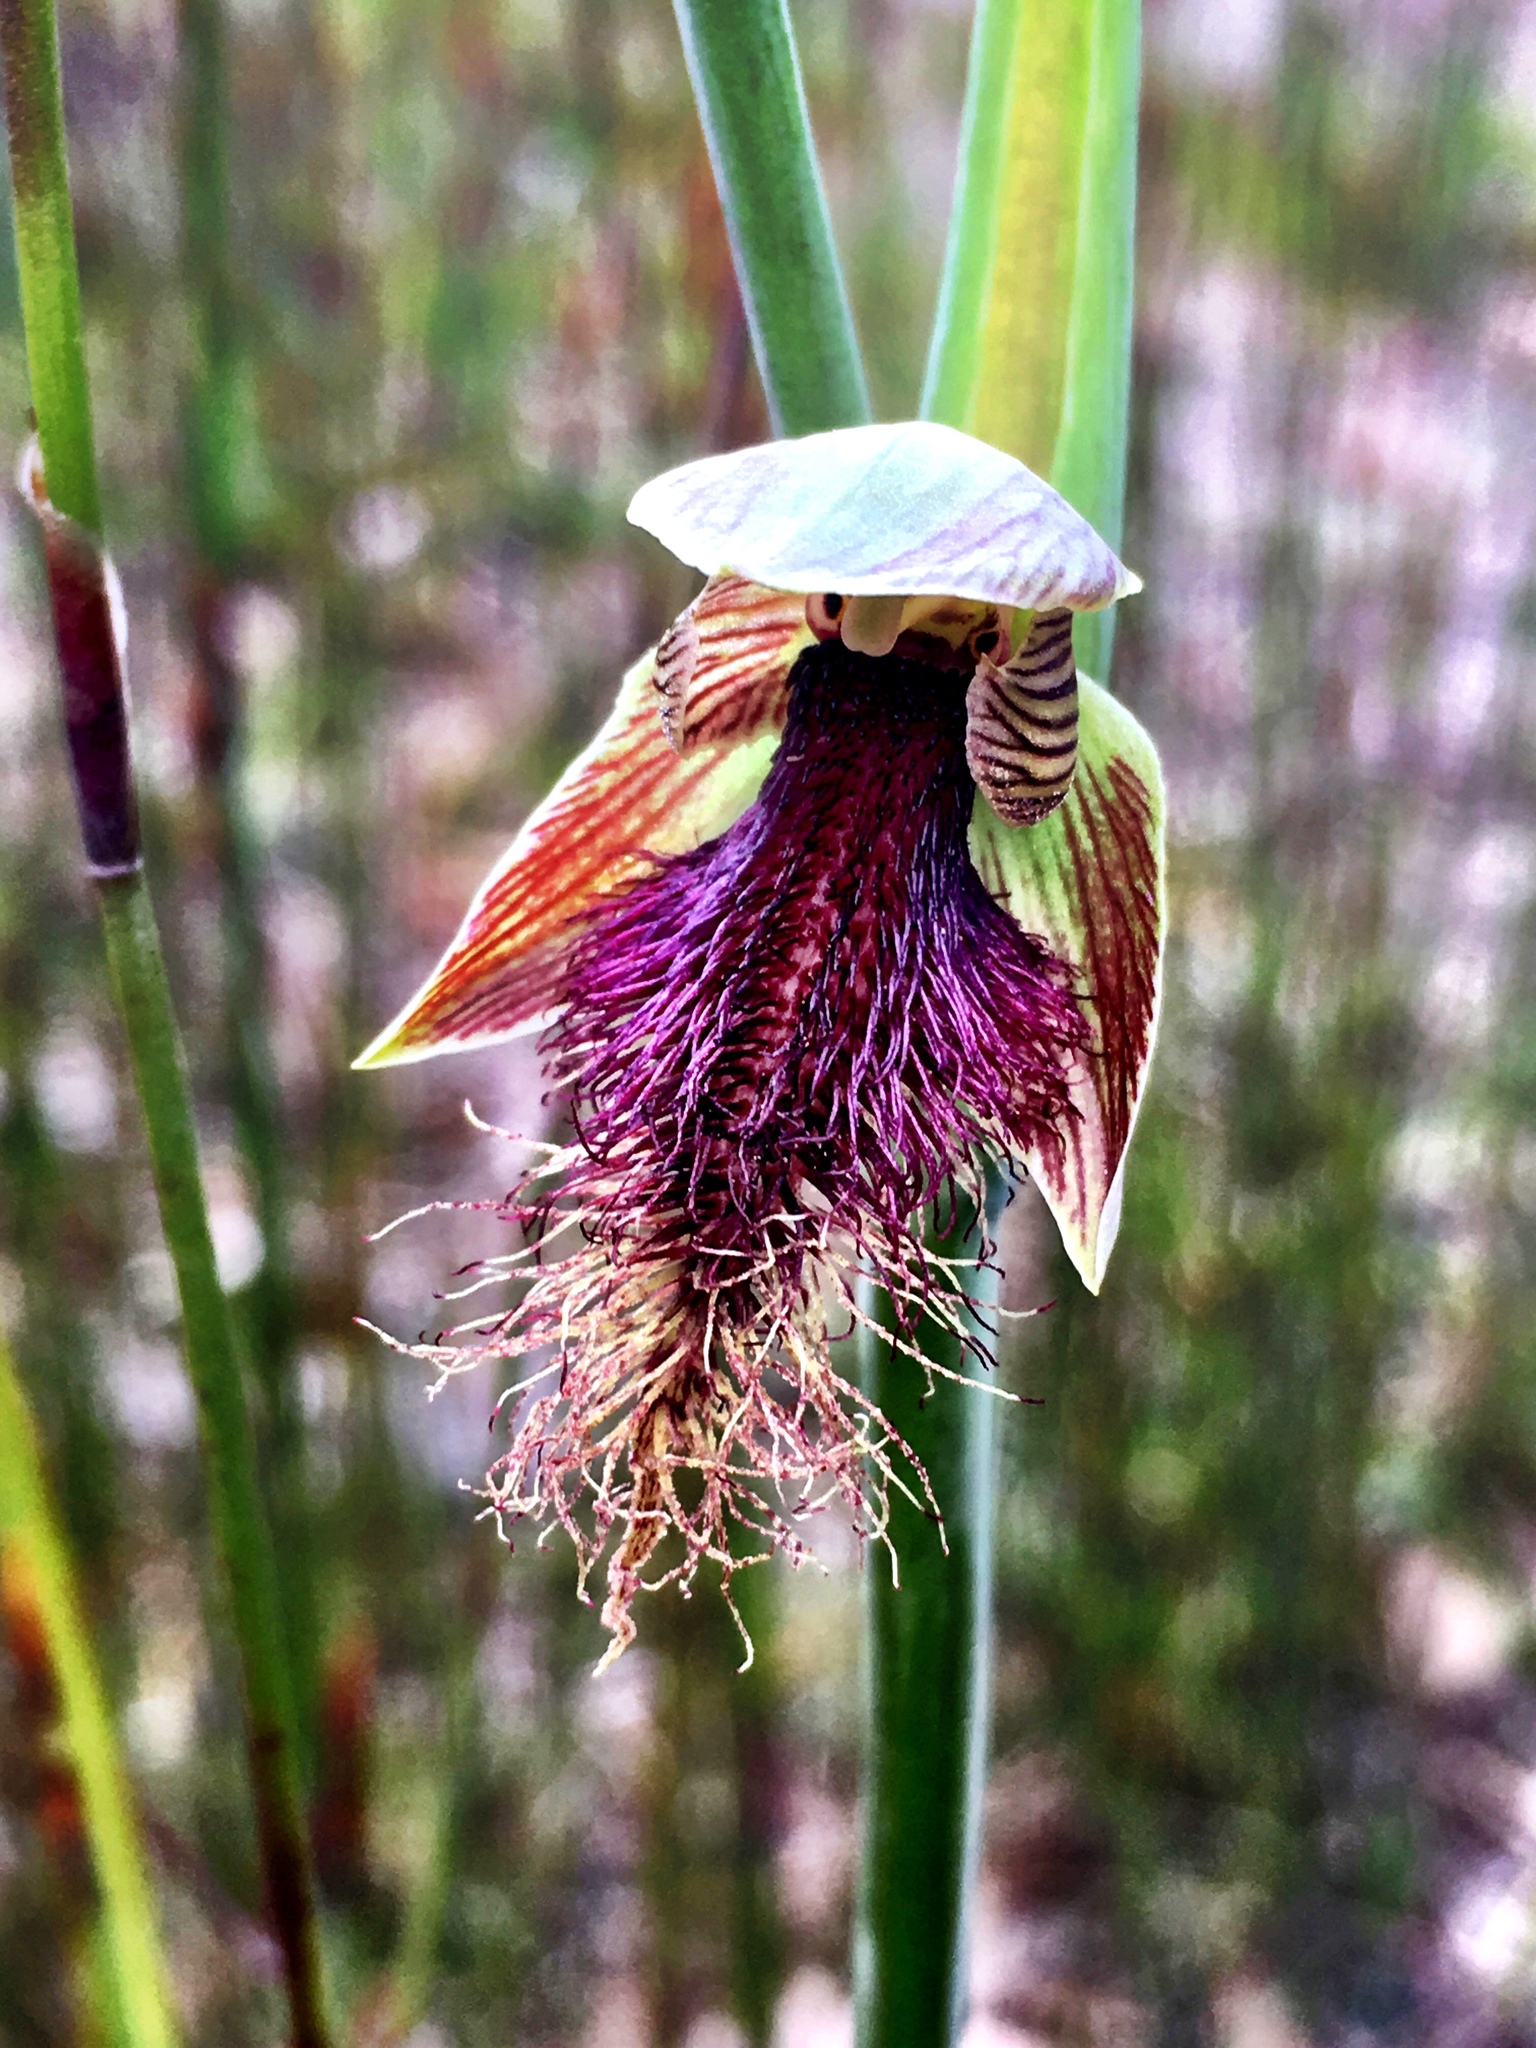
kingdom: Plantae
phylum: Tracheophyta
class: Liliopsida
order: Asparagales
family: Orchidaceae
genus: Calochilus
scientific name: Calochilus robertsonii
